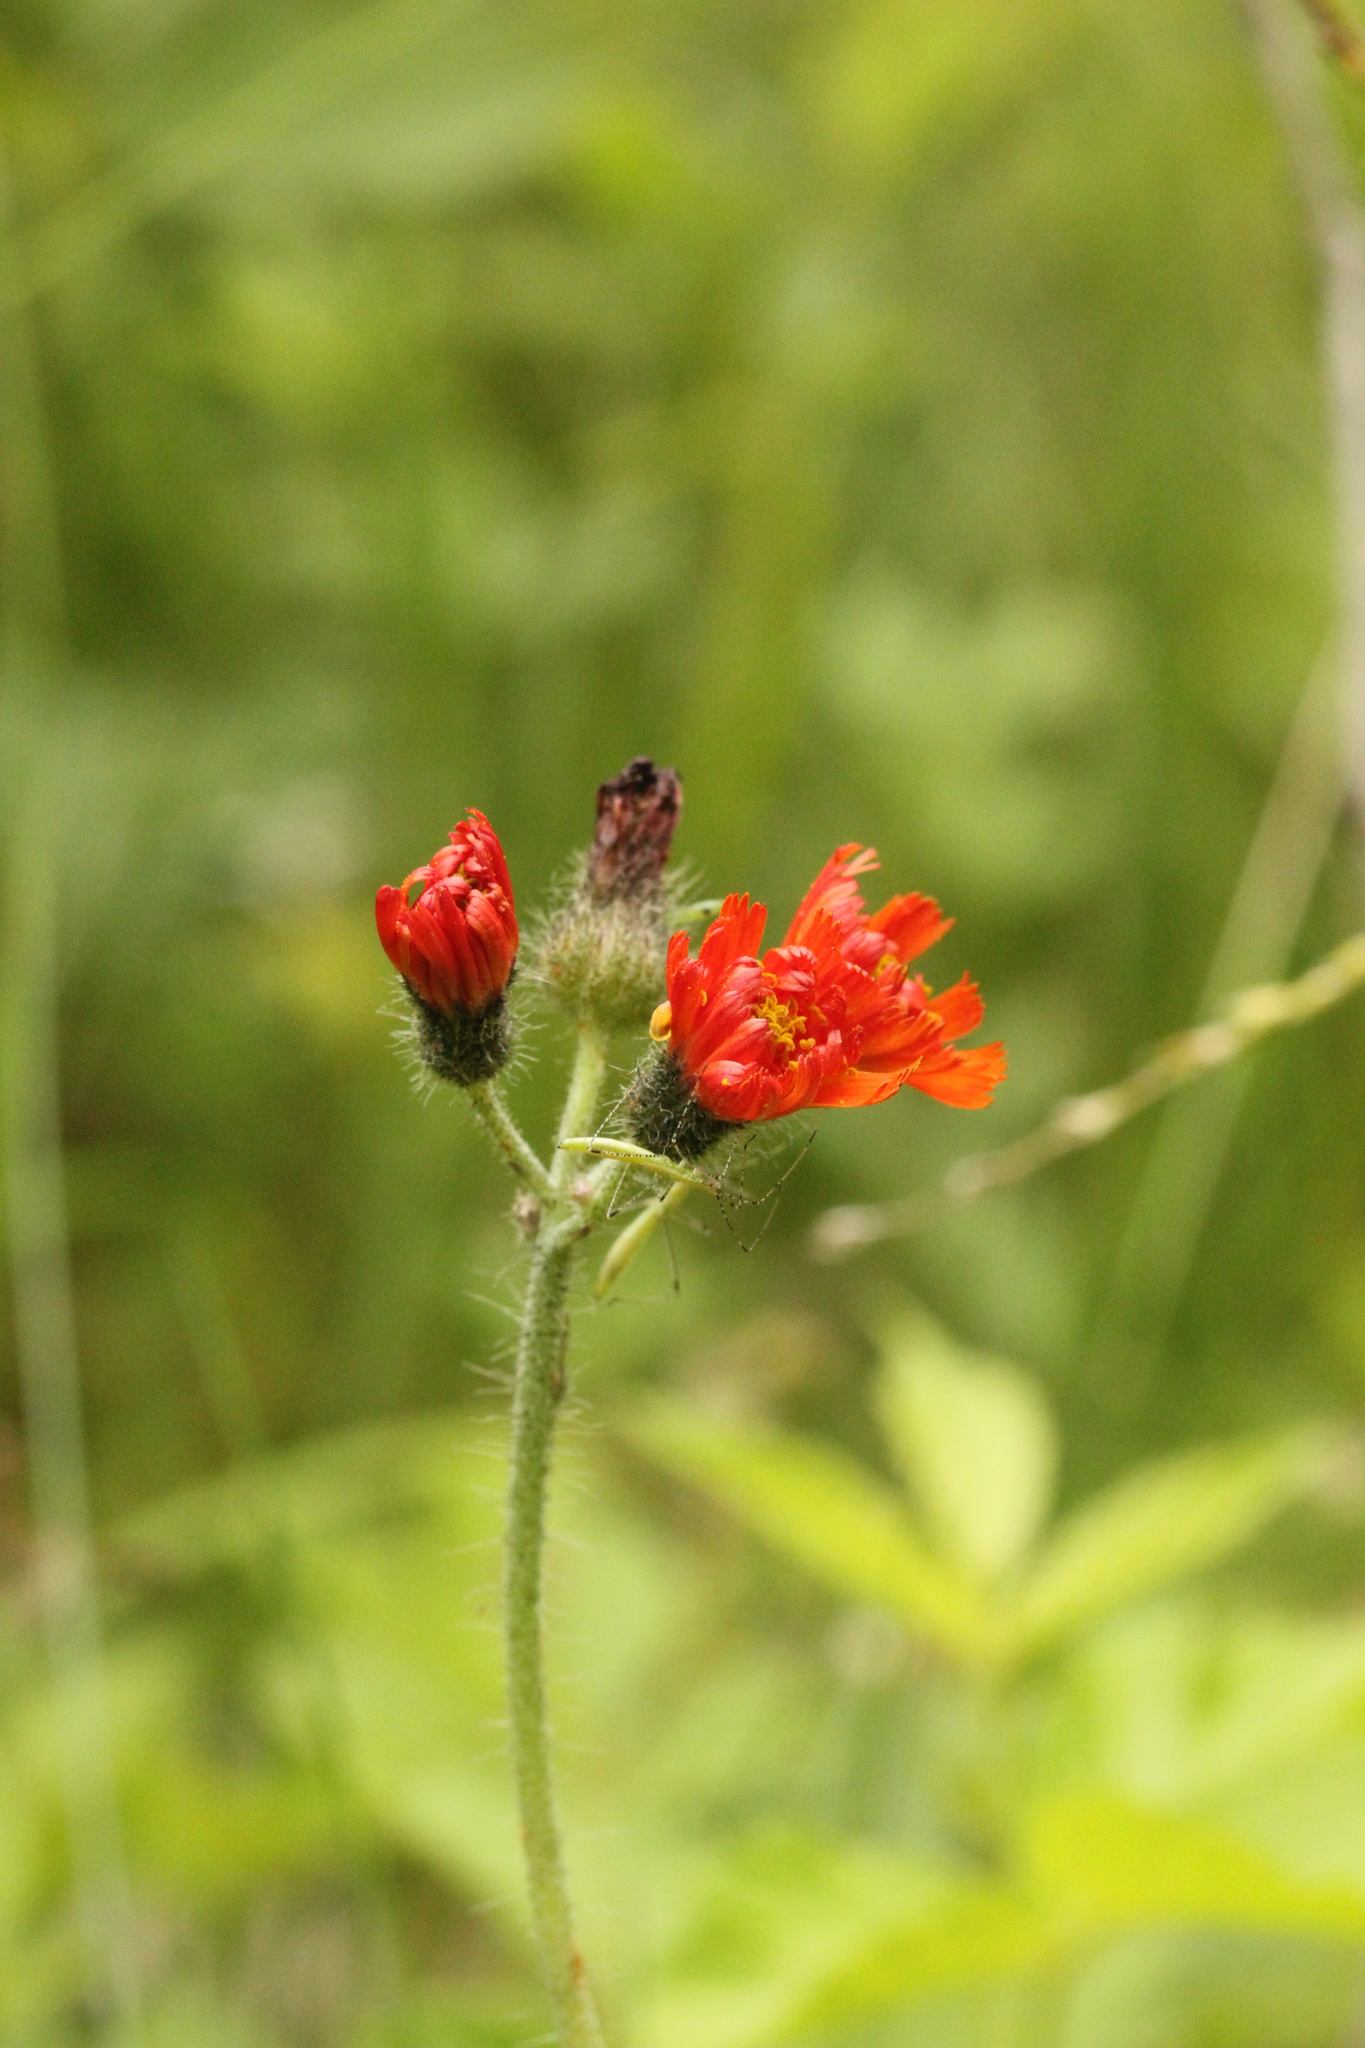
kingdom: Plantae
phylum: Tracheophyta
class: Magnoliopsida
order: Asterales
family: Asteraceae
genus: Pilosella
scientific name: Pilosella aurantiaca
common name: Fox-and-cubs
